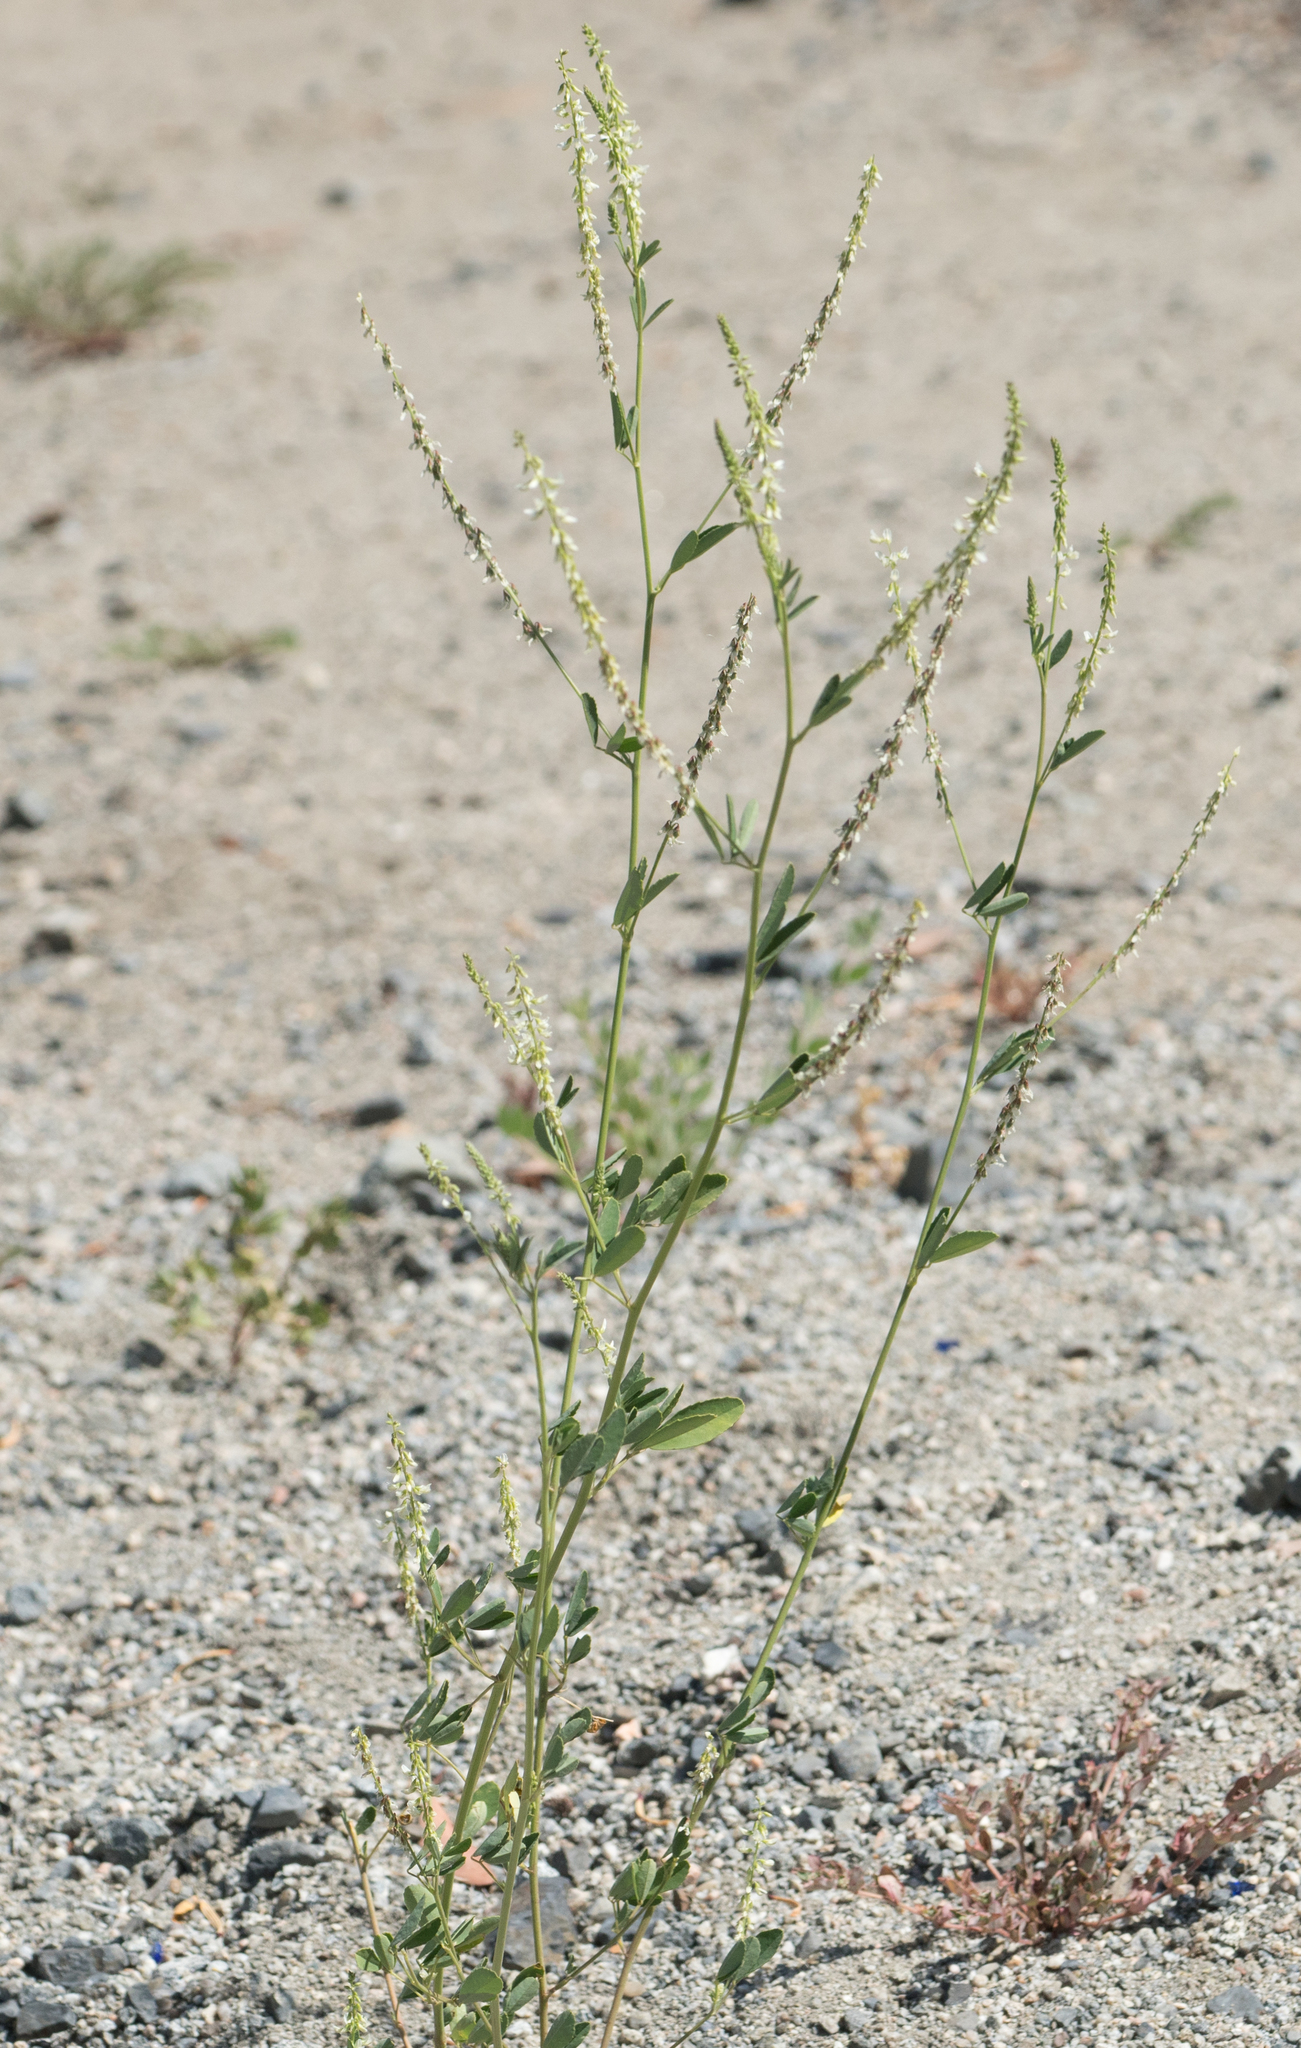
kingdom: Plantae
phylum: Tracheophyta
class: Magnoliopsida
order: Fabales
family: Fabaceae
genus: Melilotus
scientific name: Melilotus albus
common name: White melilot
